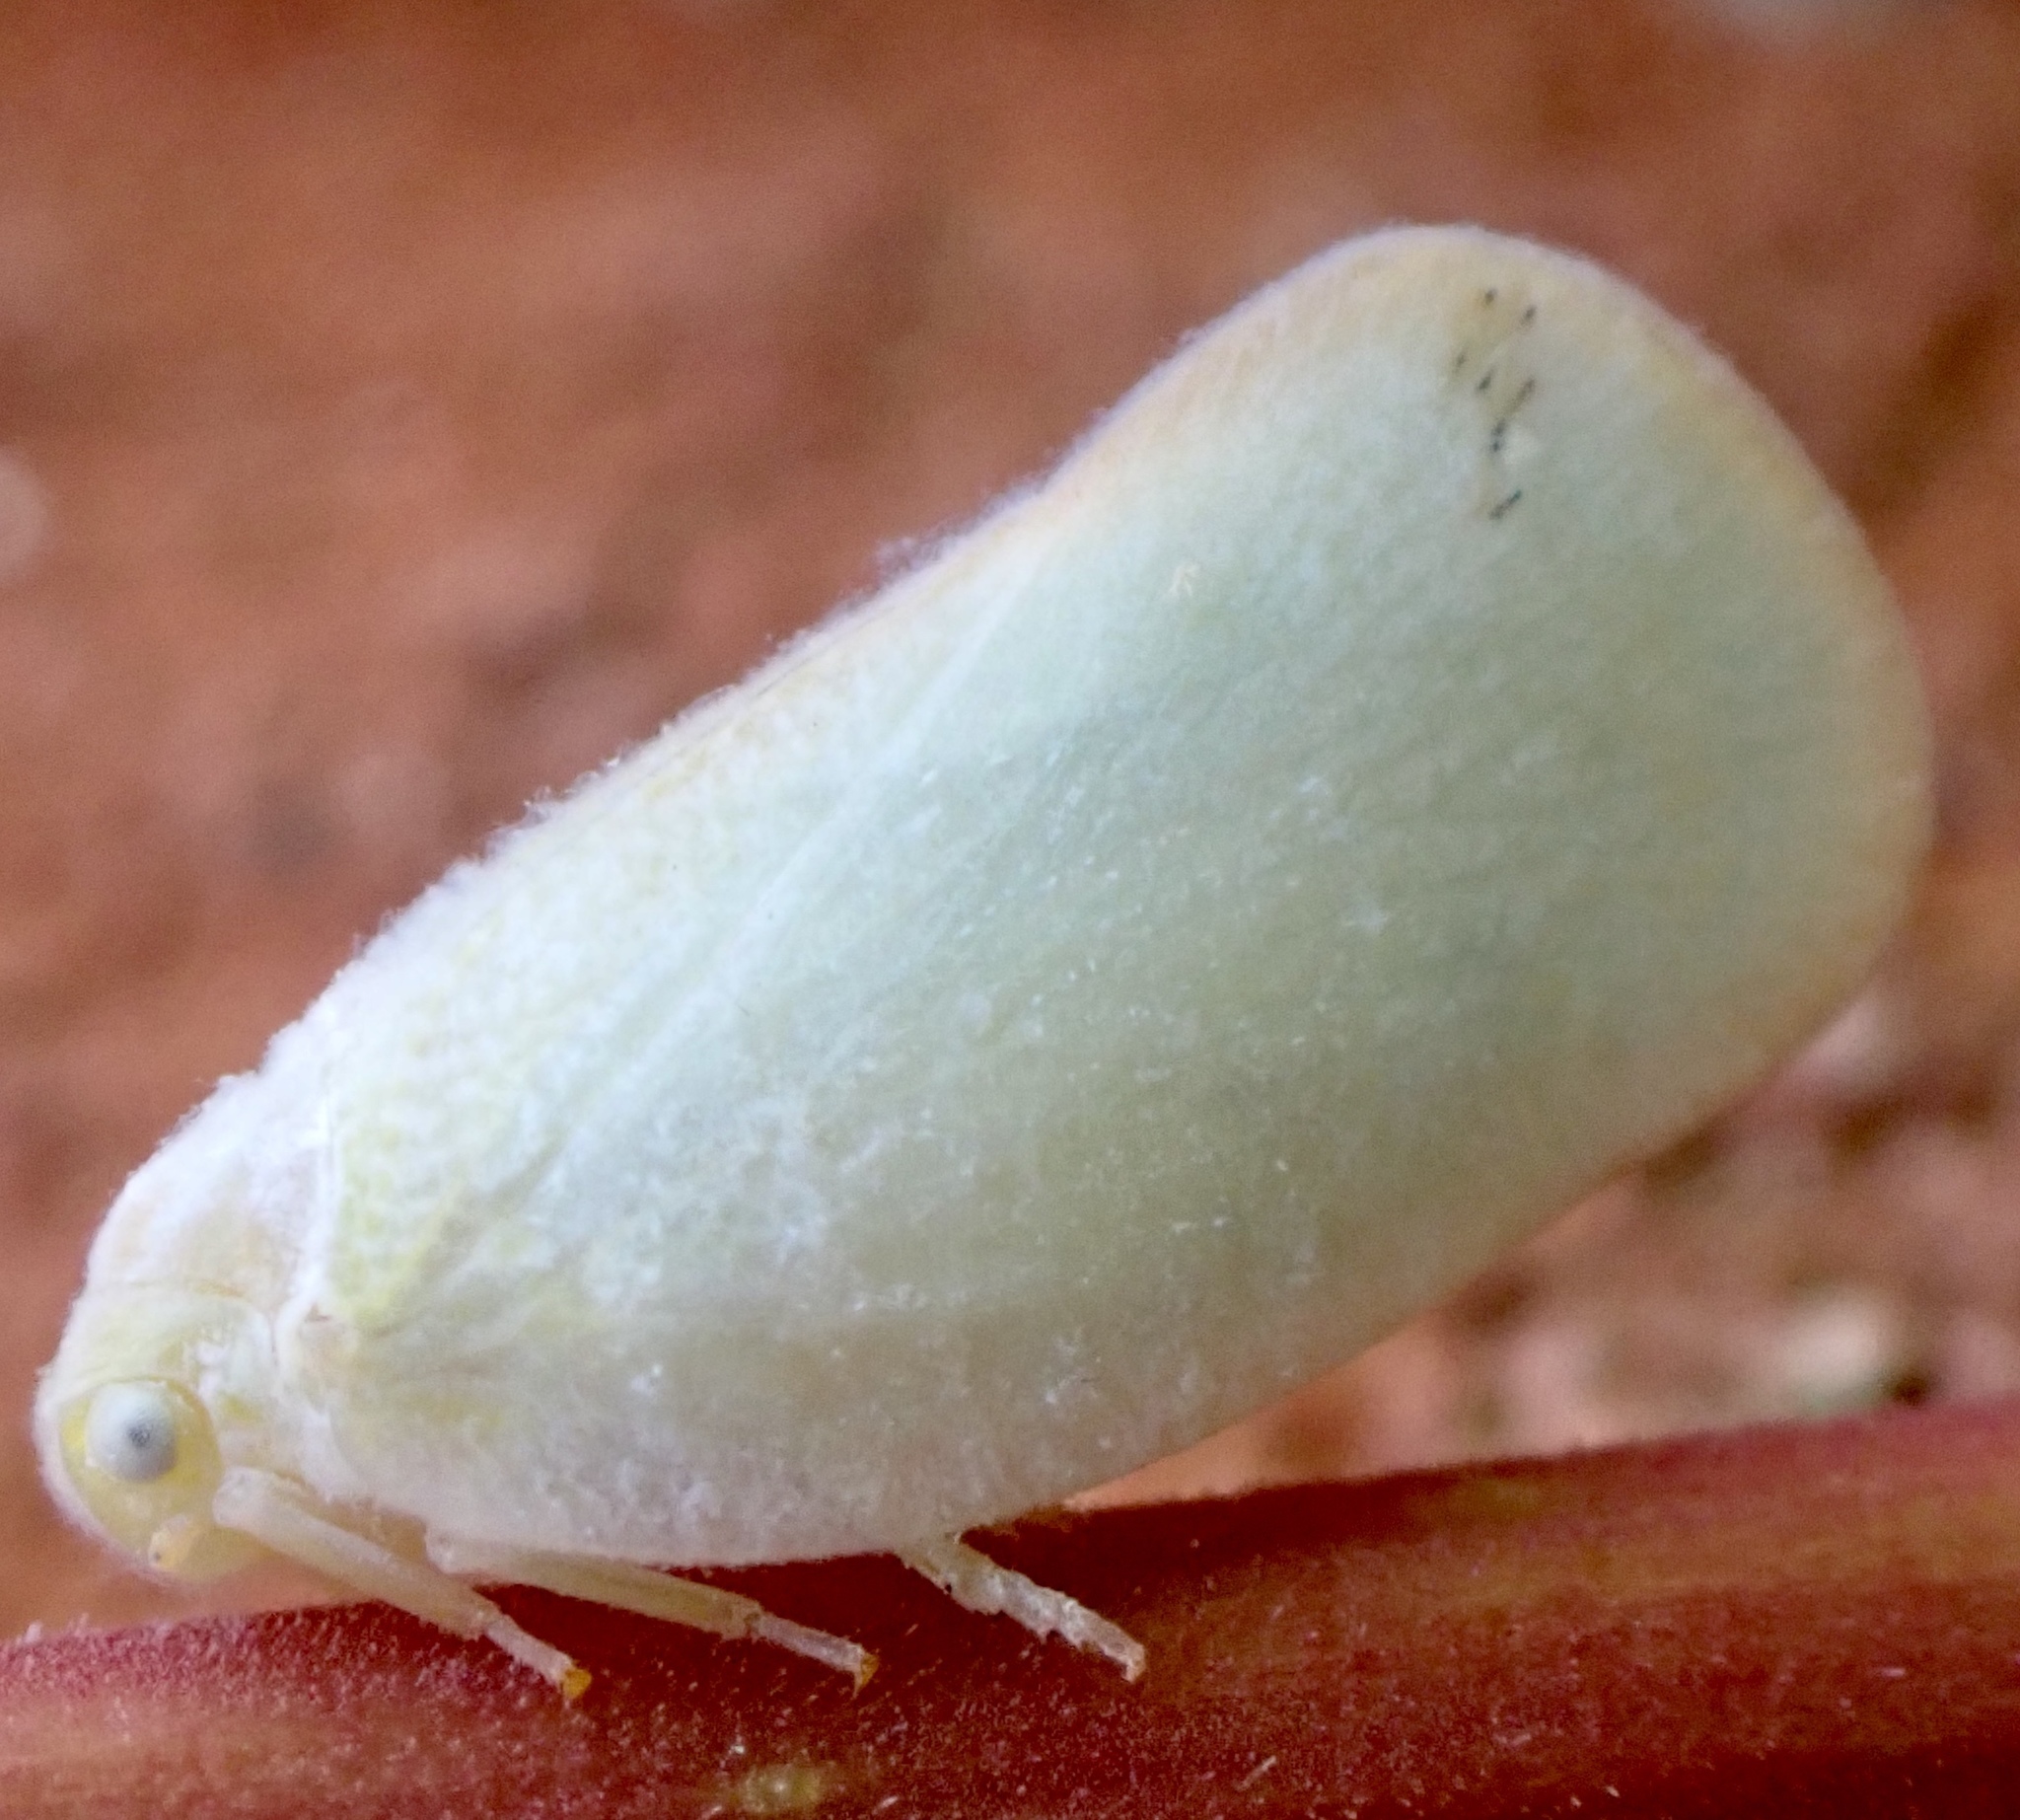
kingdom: Animalia
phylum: Arthropoda
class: Insecta
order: Hemiptera
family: Flatidae
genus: Ormenoides
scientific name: Ormenoides venusta
